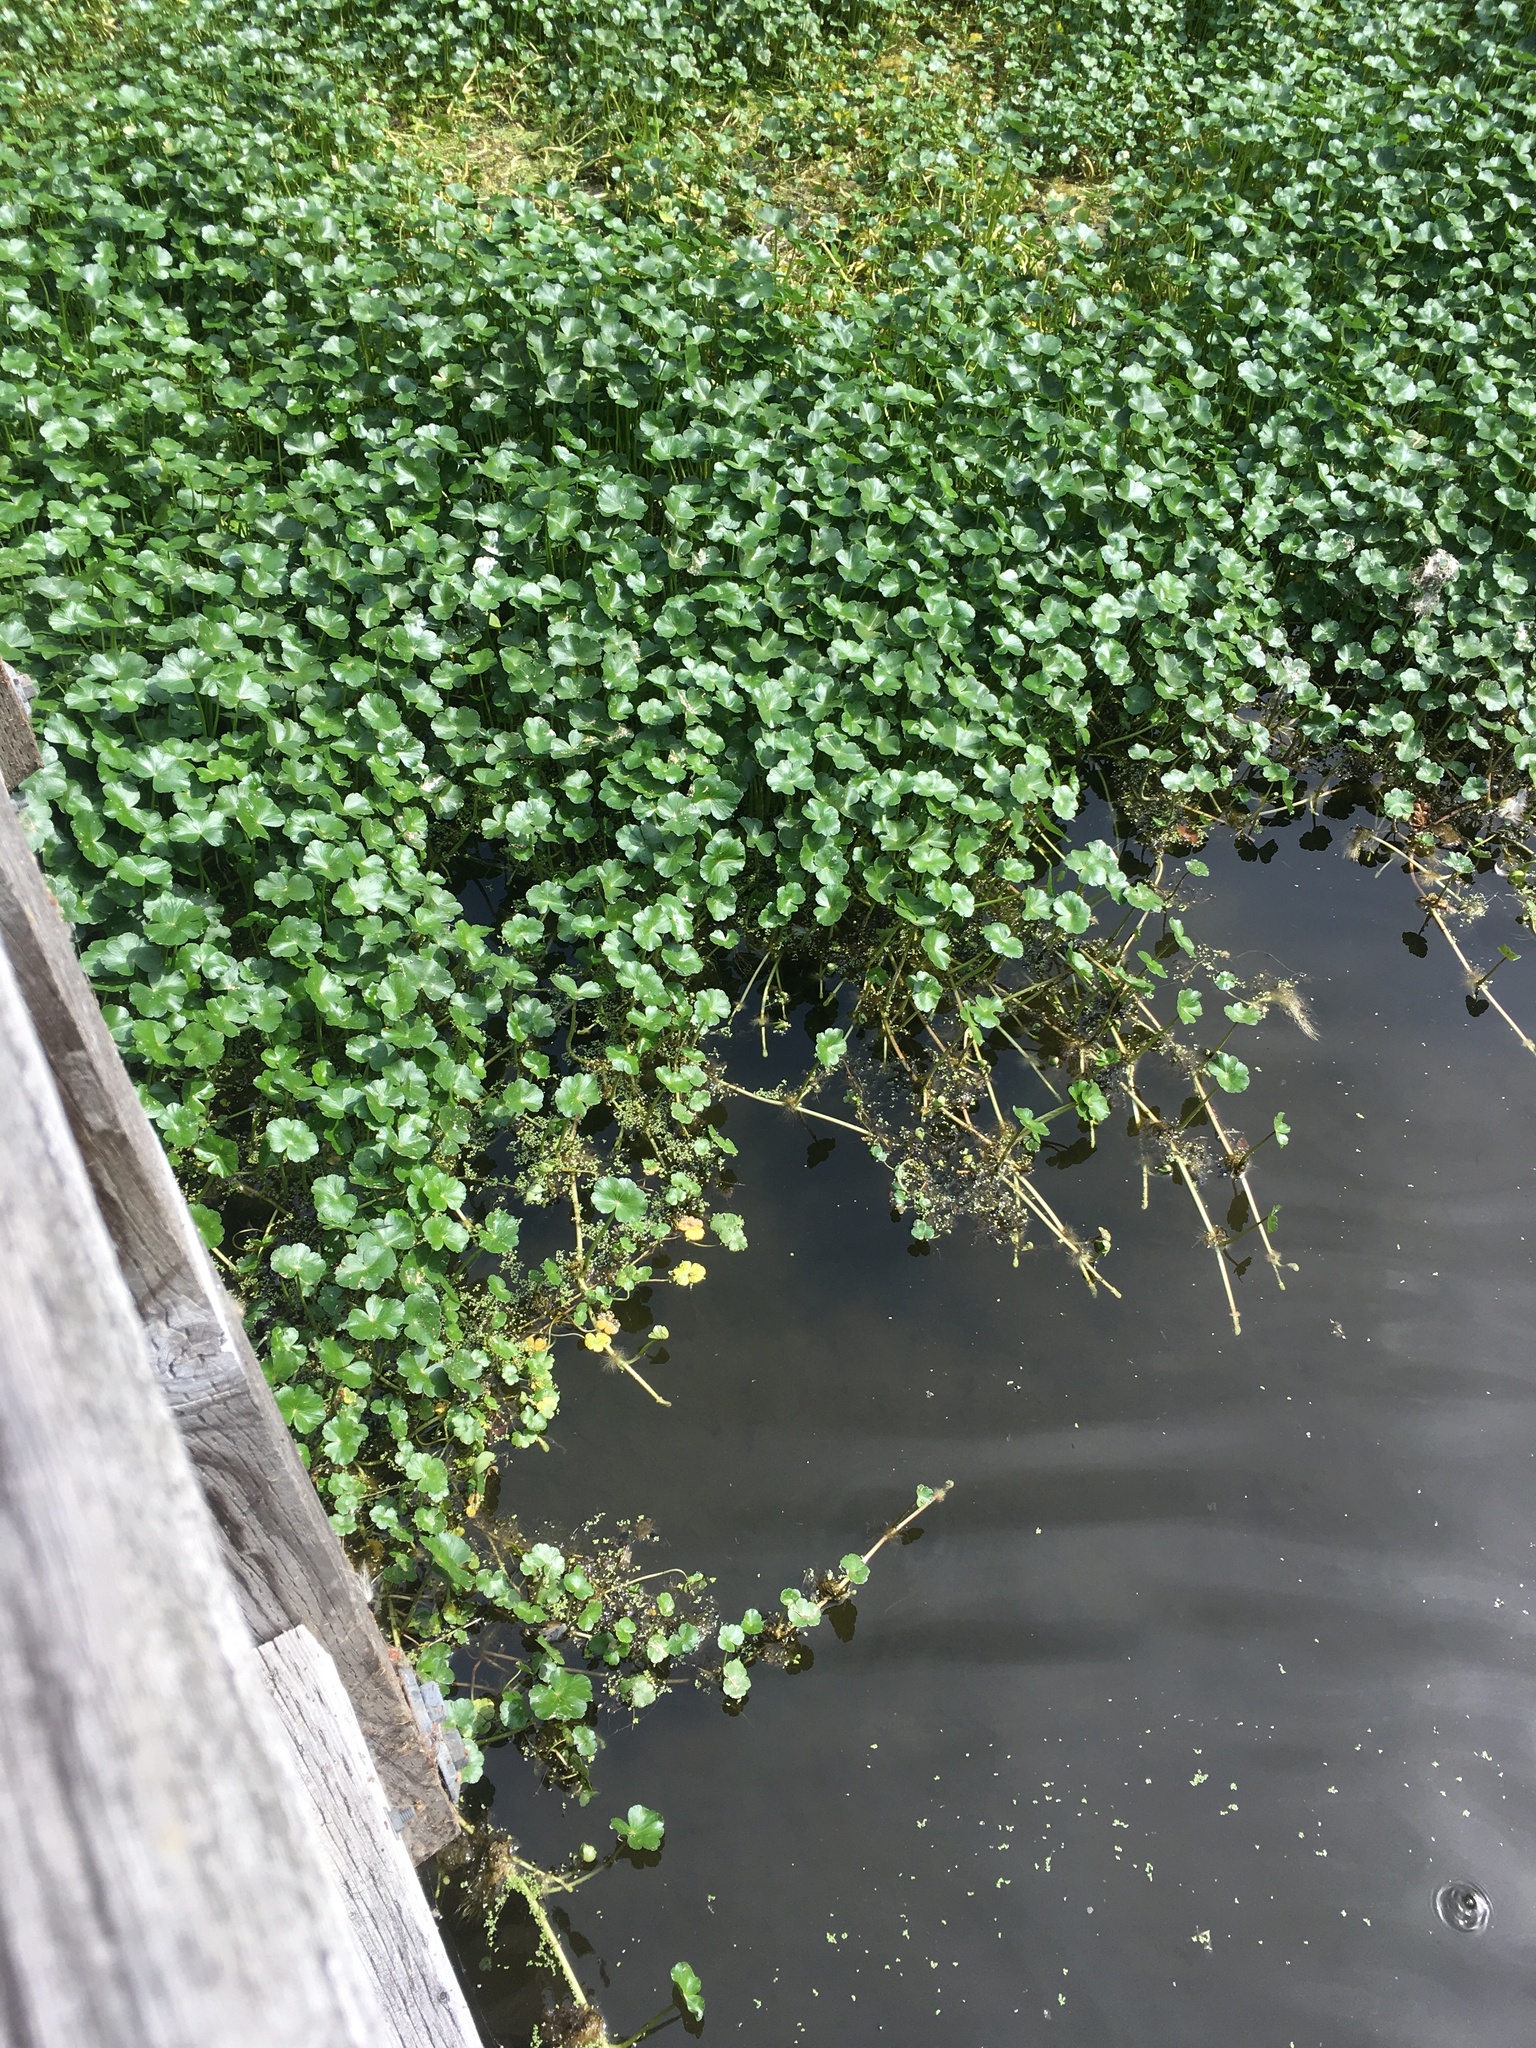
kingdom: Plantae
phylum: Tracheophyta
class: Magnoliopsida
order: Apiales
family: Araliaceae
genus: Hydrocotyle
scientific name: Hydrocotyle ranunculoides
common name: Floating pennywort
